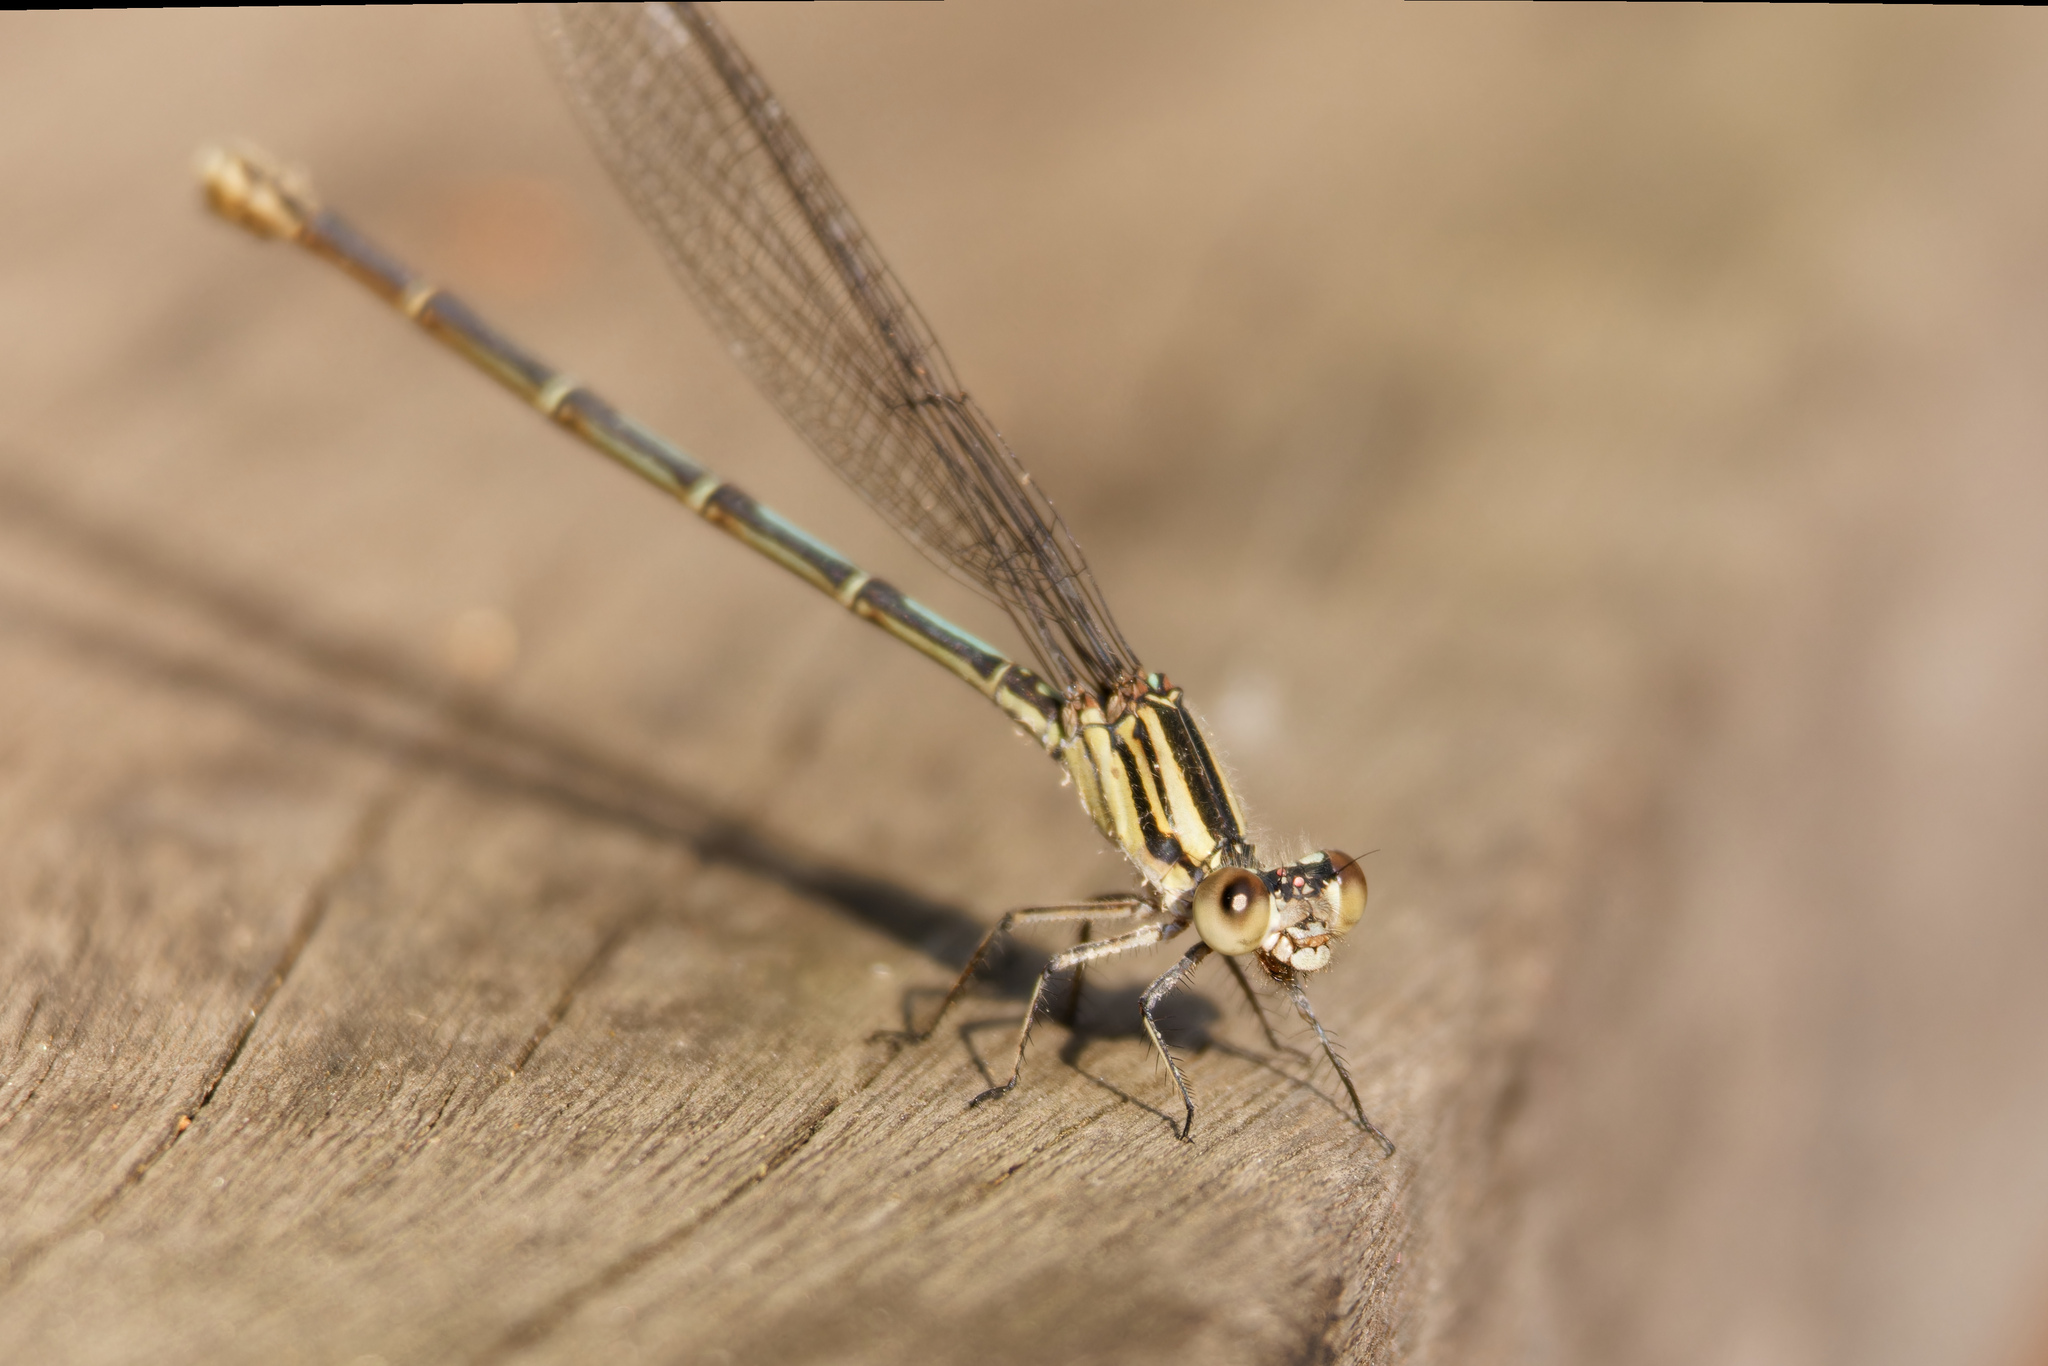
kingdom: Animalia
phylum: Arthropoda
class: Insecta
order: Odonata
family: Coenagrionidae
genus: Argia
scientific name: Argia translata
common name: Dusky dancer
